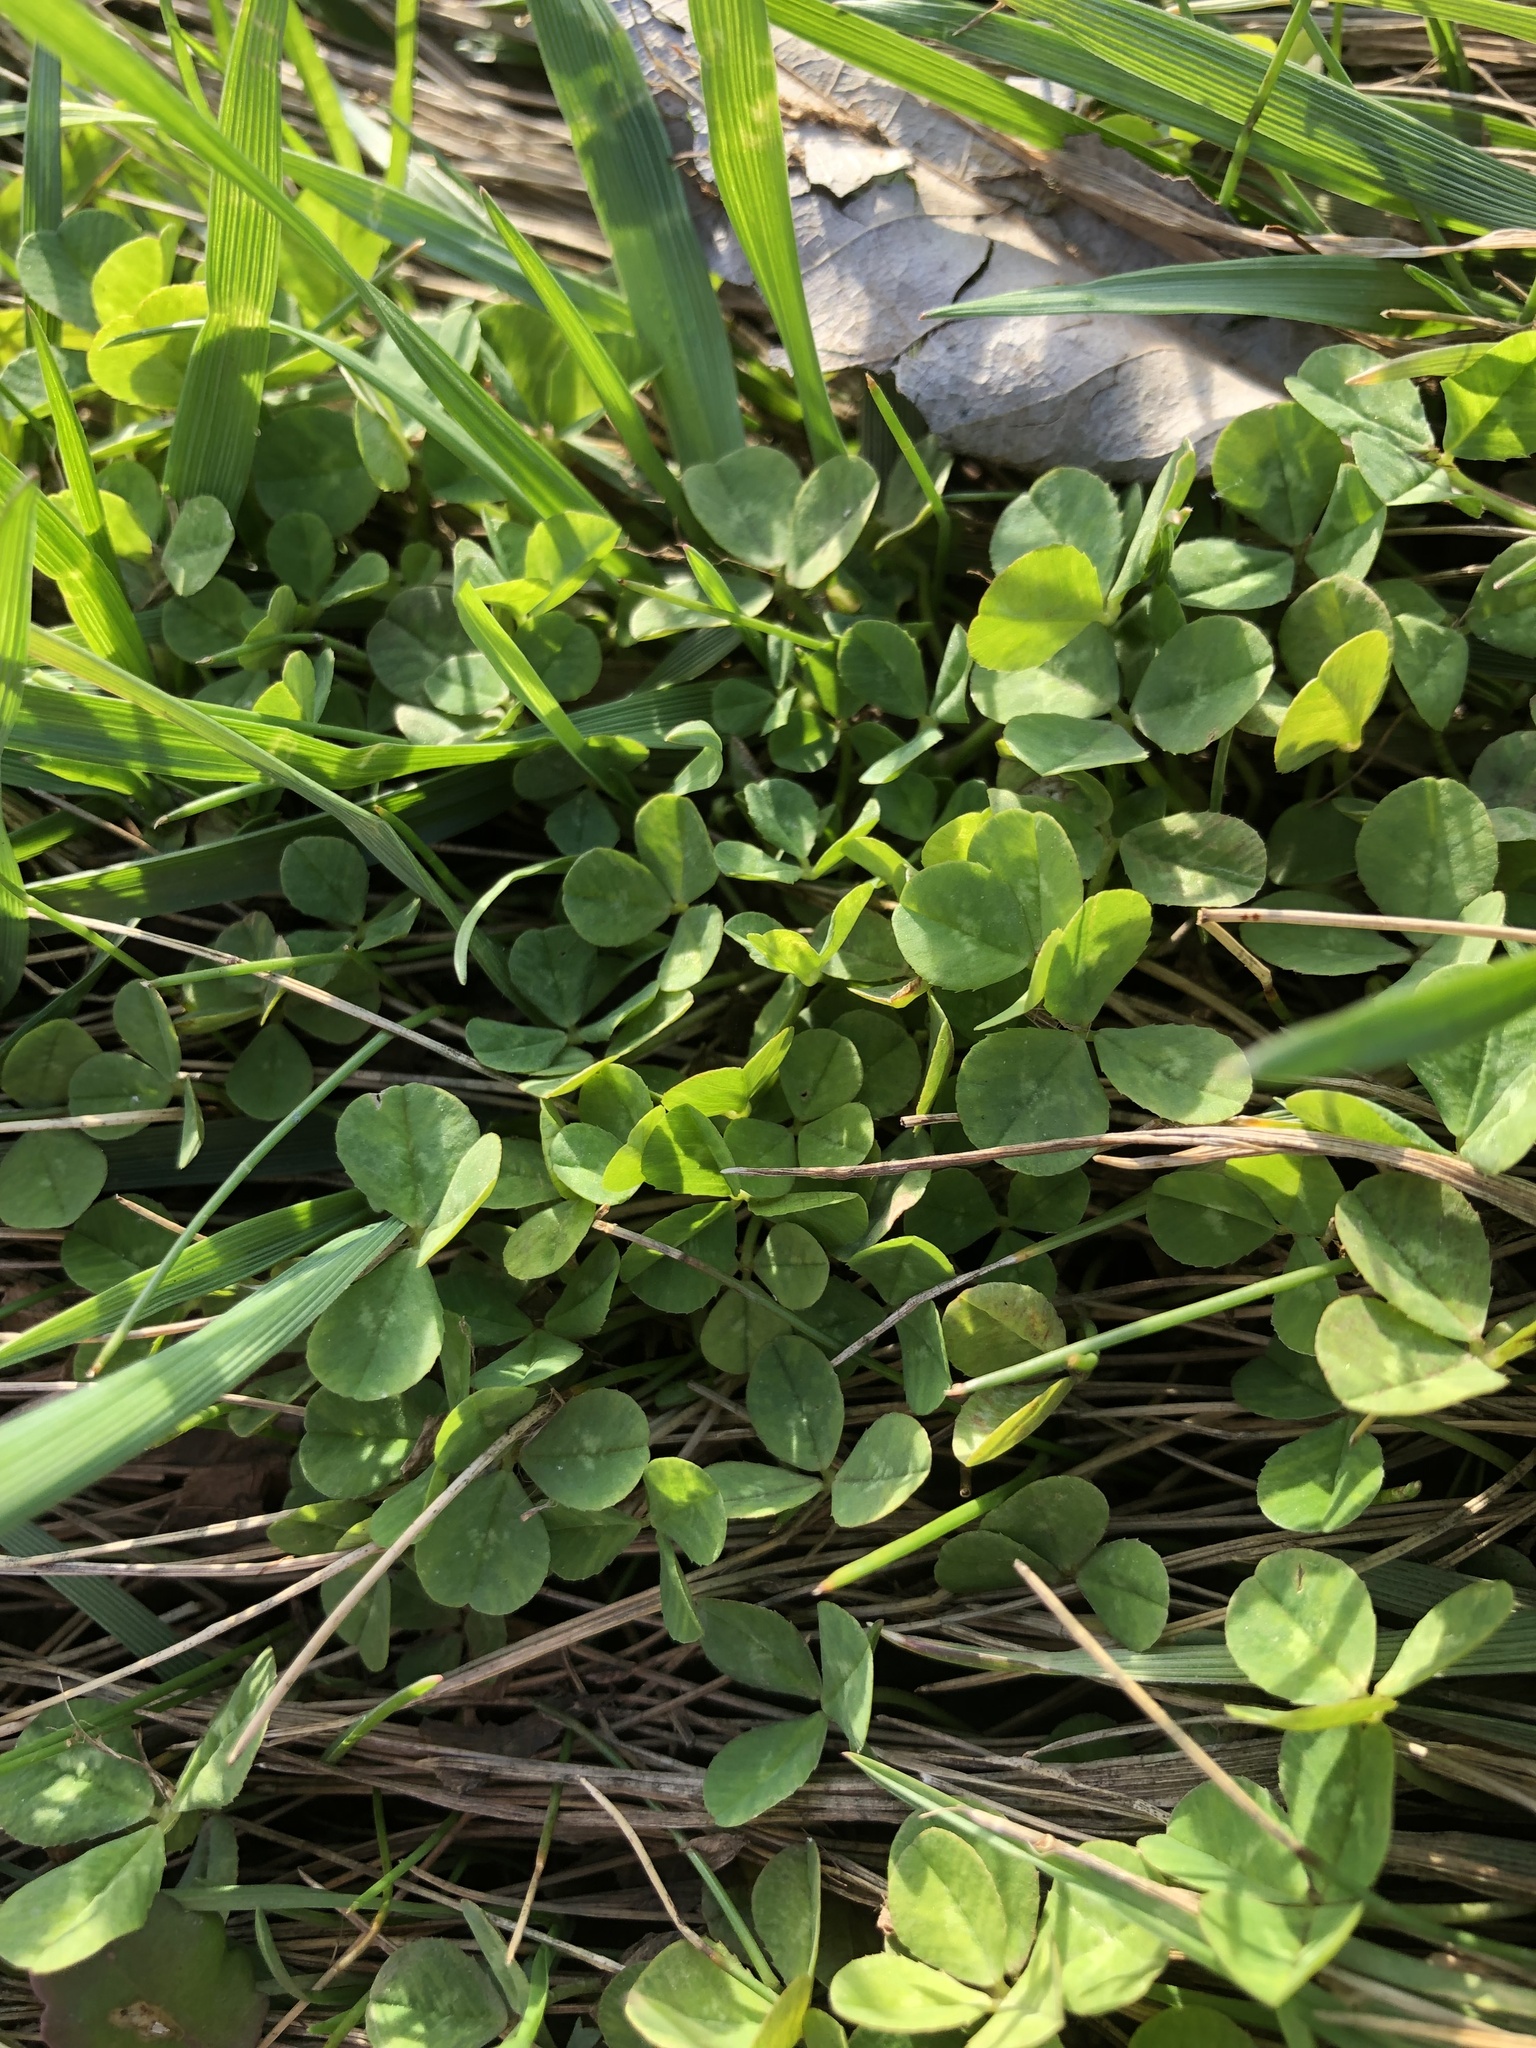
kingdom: Plantae
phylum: Tracheophyta
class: Magnoliopsida
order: Fabales
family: Fabaceae
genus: Trifolium
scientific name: Trifolium repens
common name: White clover
